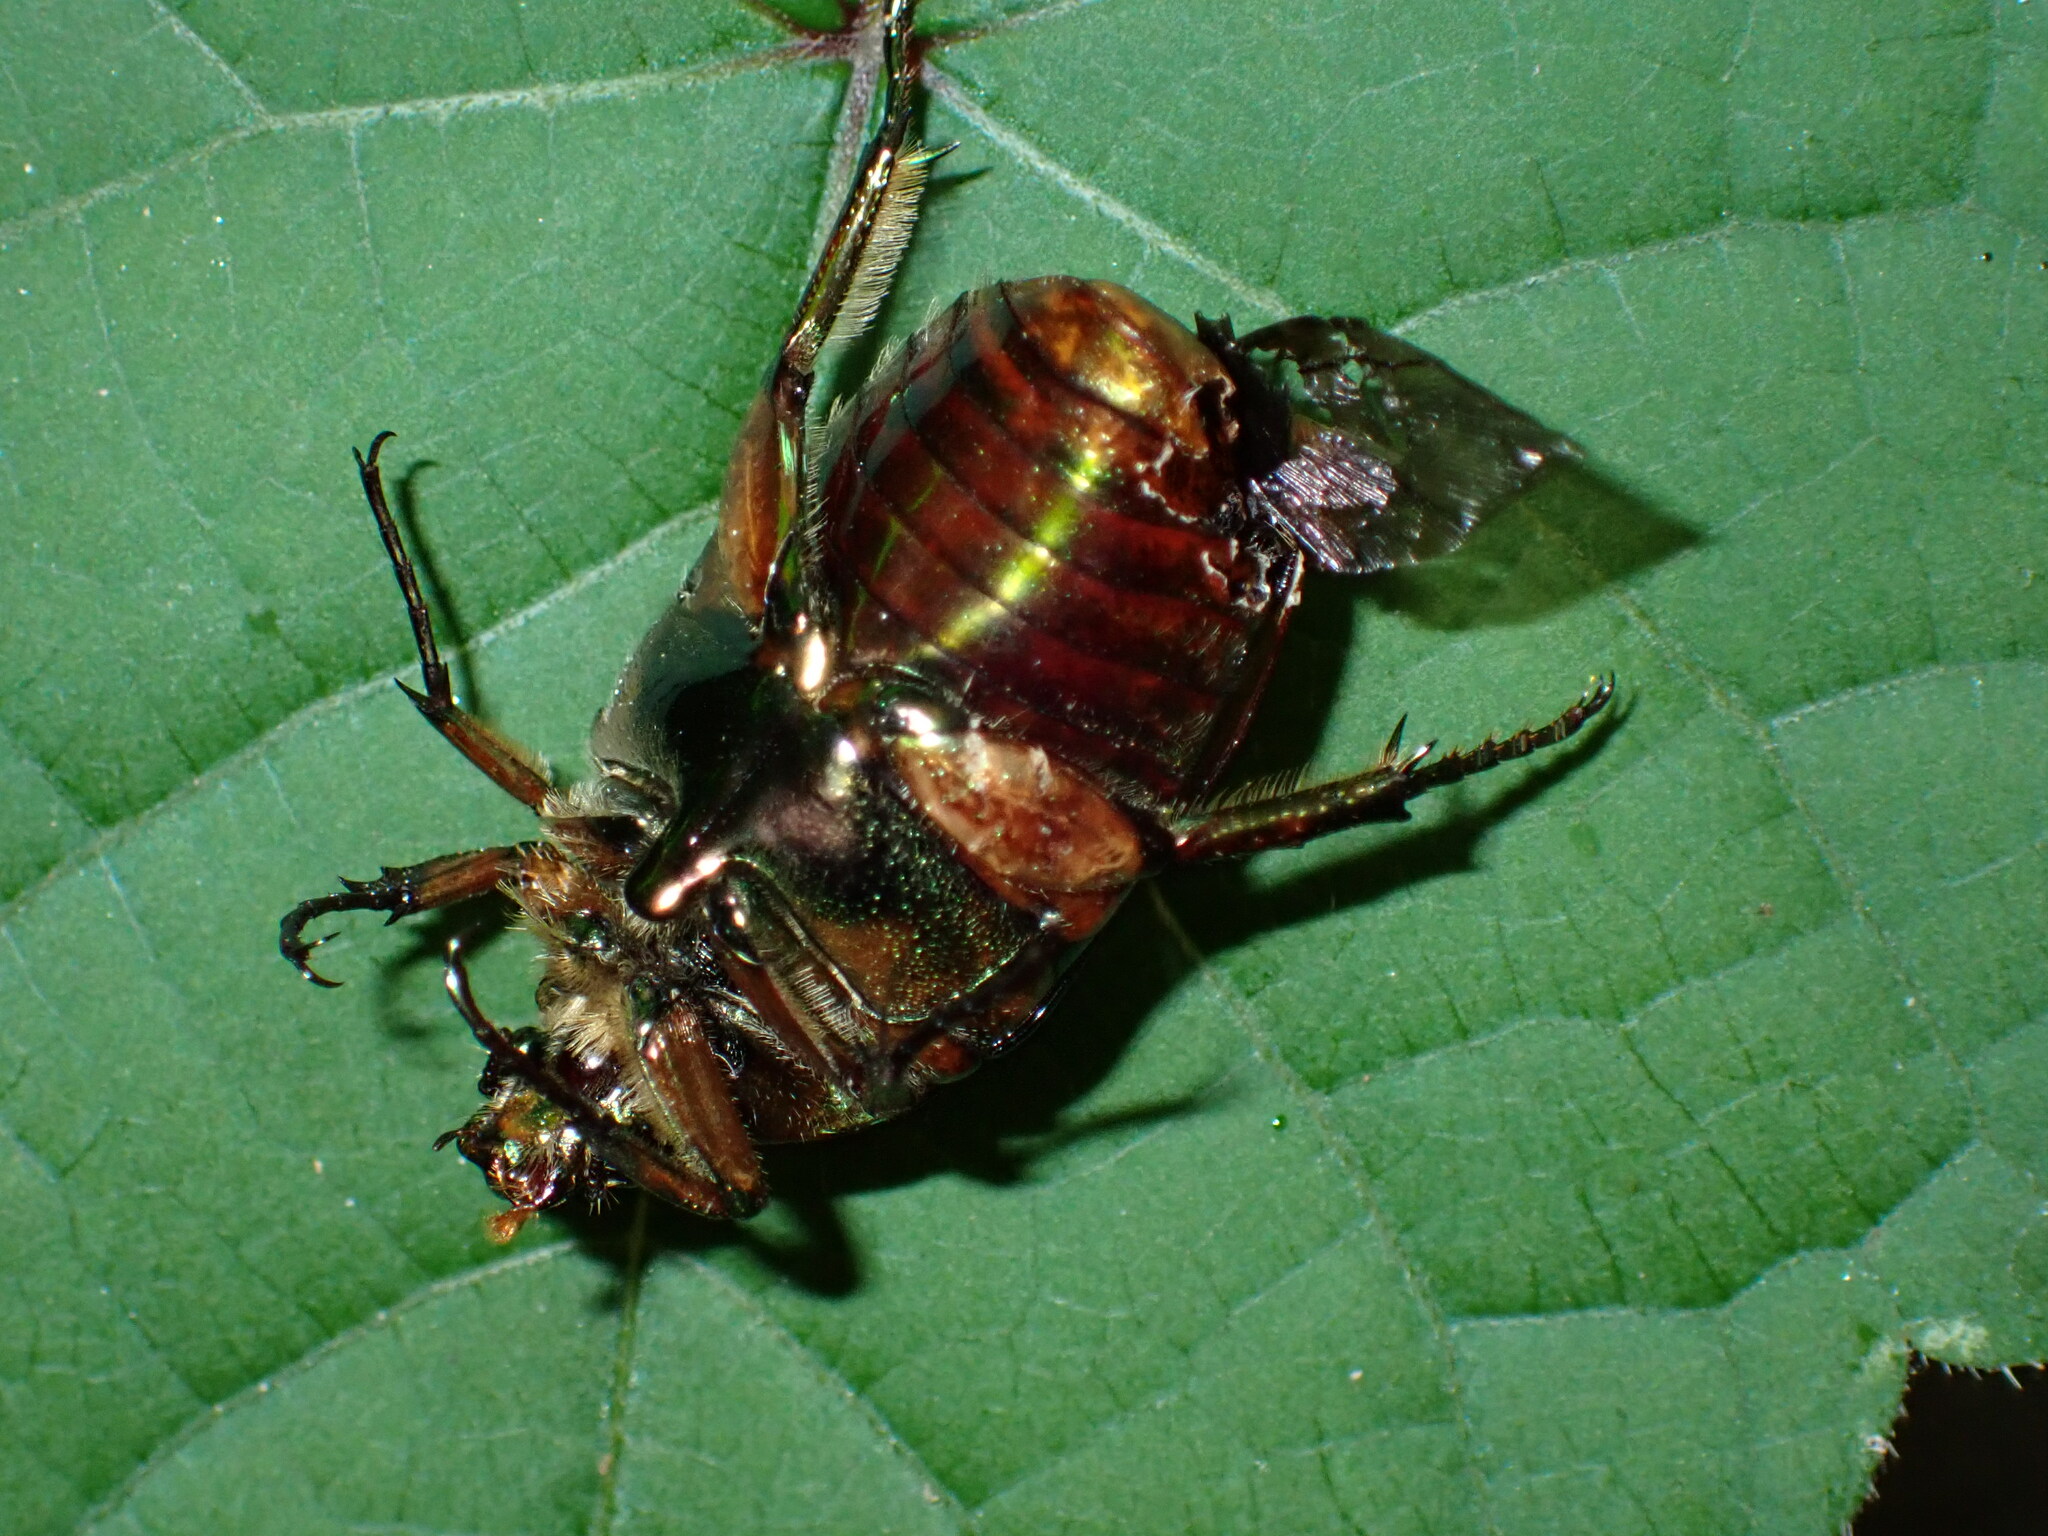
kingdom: Animalia
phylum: Arthropoda
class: Insecta
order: Coleoptera
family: Scarabaeidae
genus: Cotinis
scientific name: Cotinis nitida
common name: Common green june beetle
